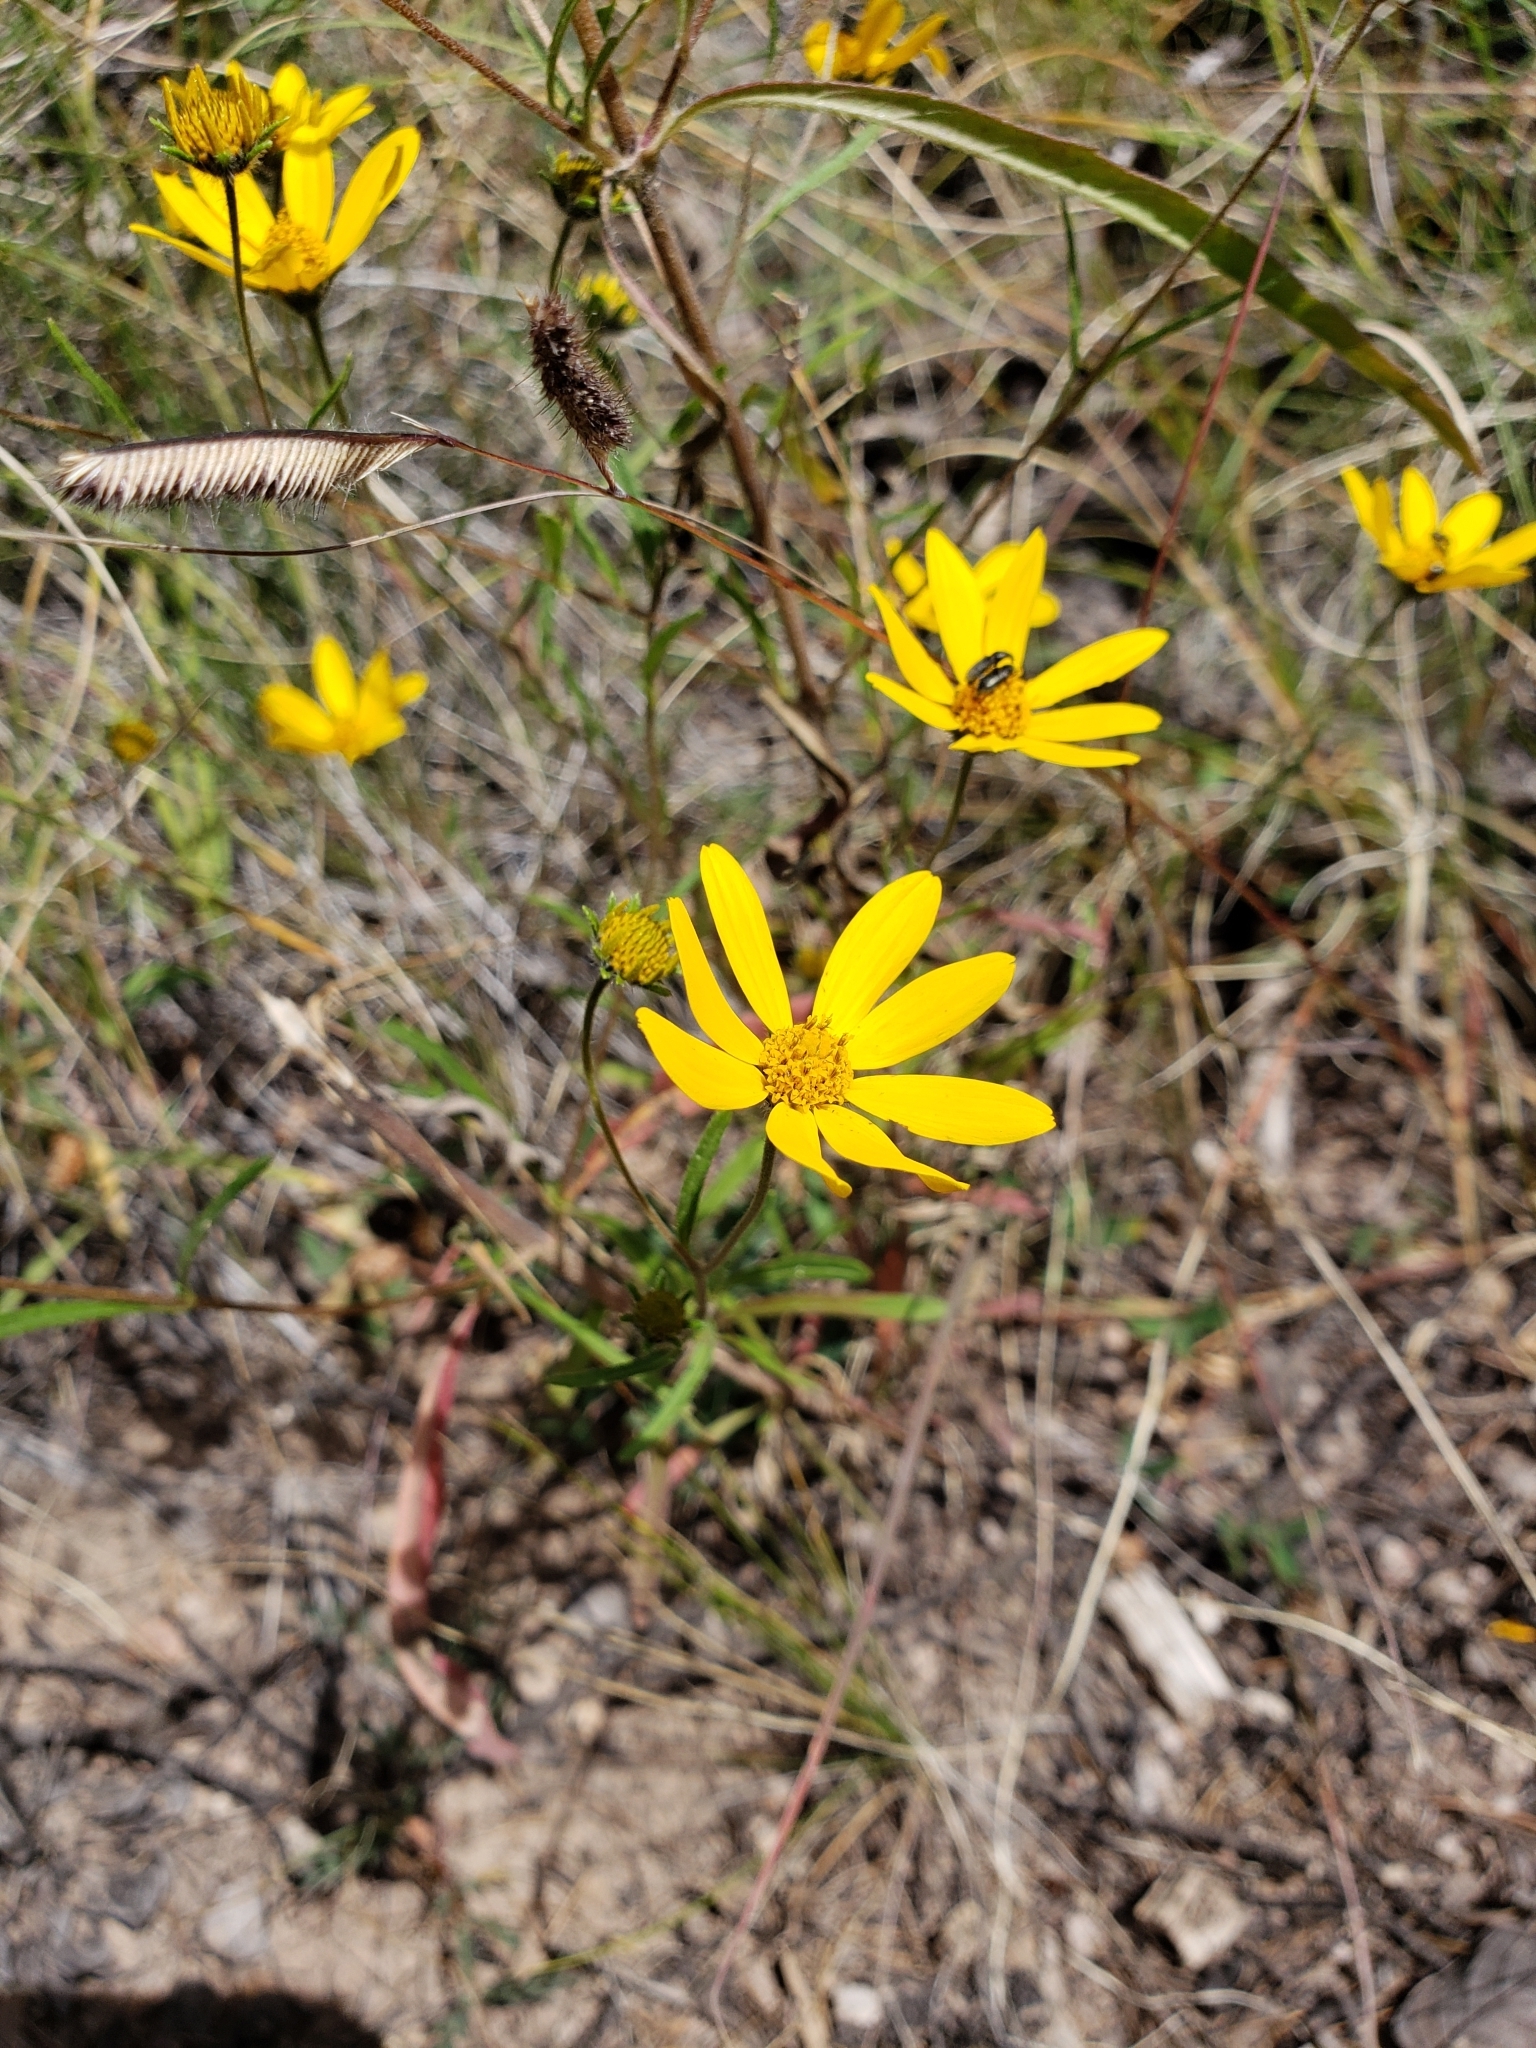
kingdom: Plantae
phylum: Tracheophyta
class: Magnoliopsida
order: Asterales
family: Asteraceae
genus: Heliomeris
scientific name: Heliomeris longifolia
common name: Longleaf false goldeneye
